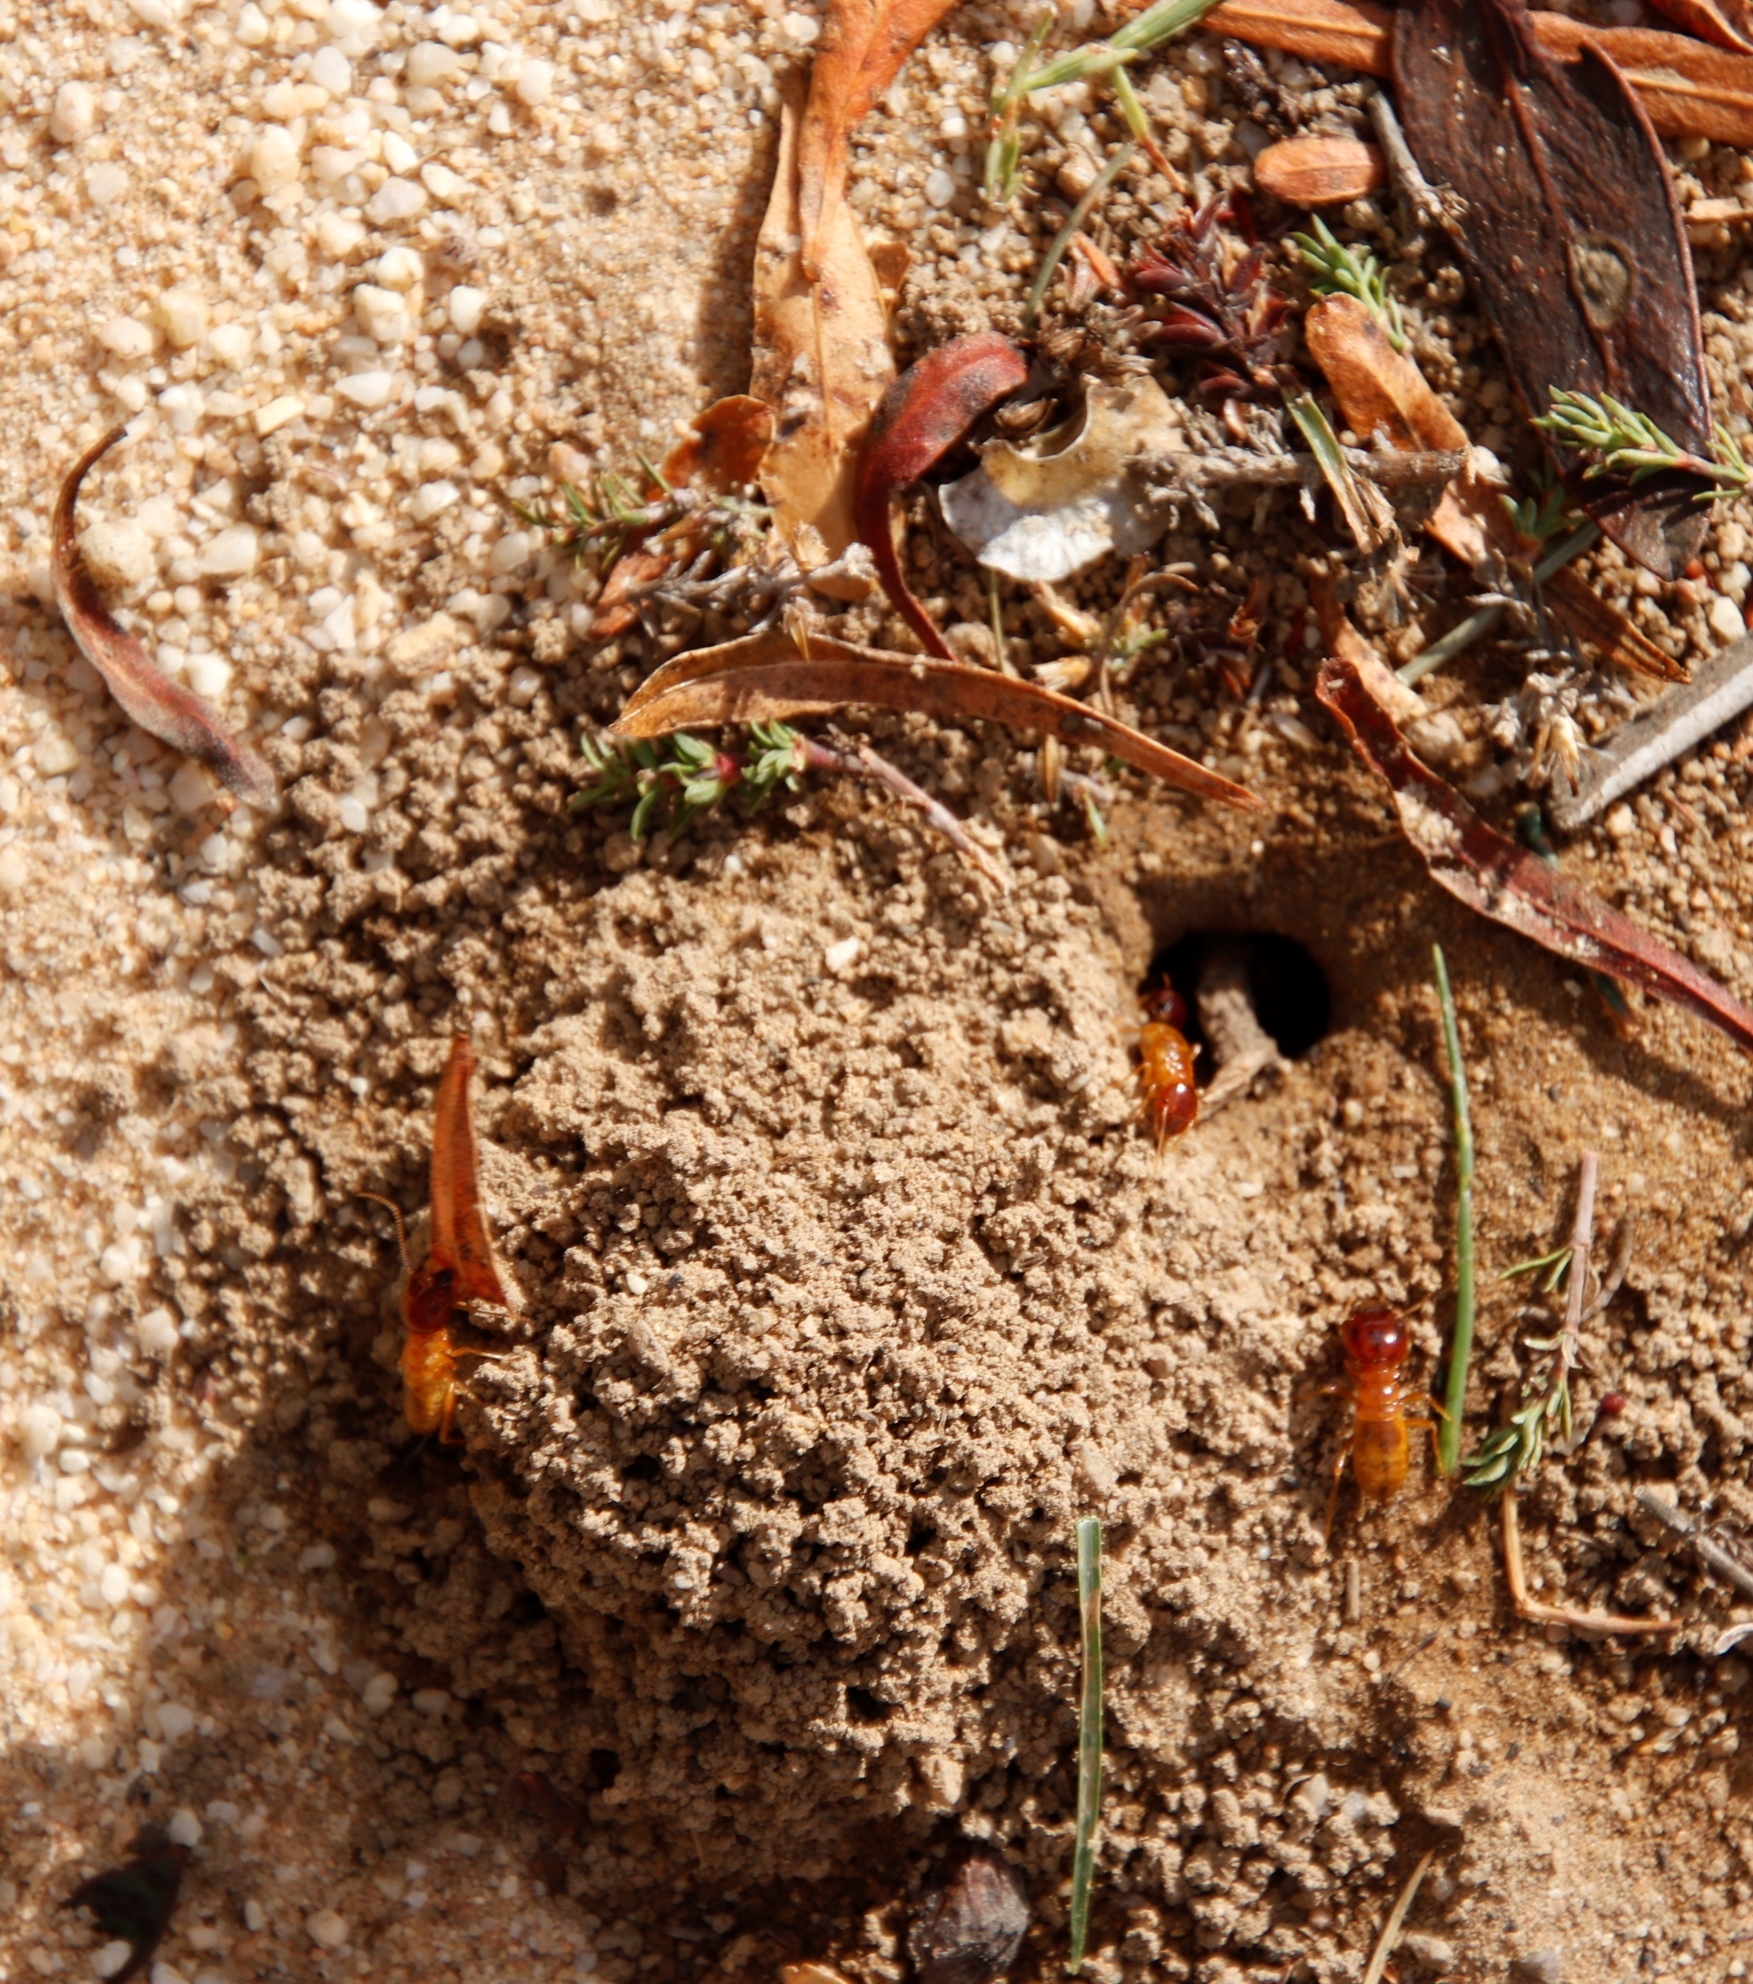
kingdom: Animalia
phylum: Arthropoda
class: Insecta
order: Blattodea
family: Hodotermitidae
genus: Microhodotermes
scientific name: Microhodotermes viator
